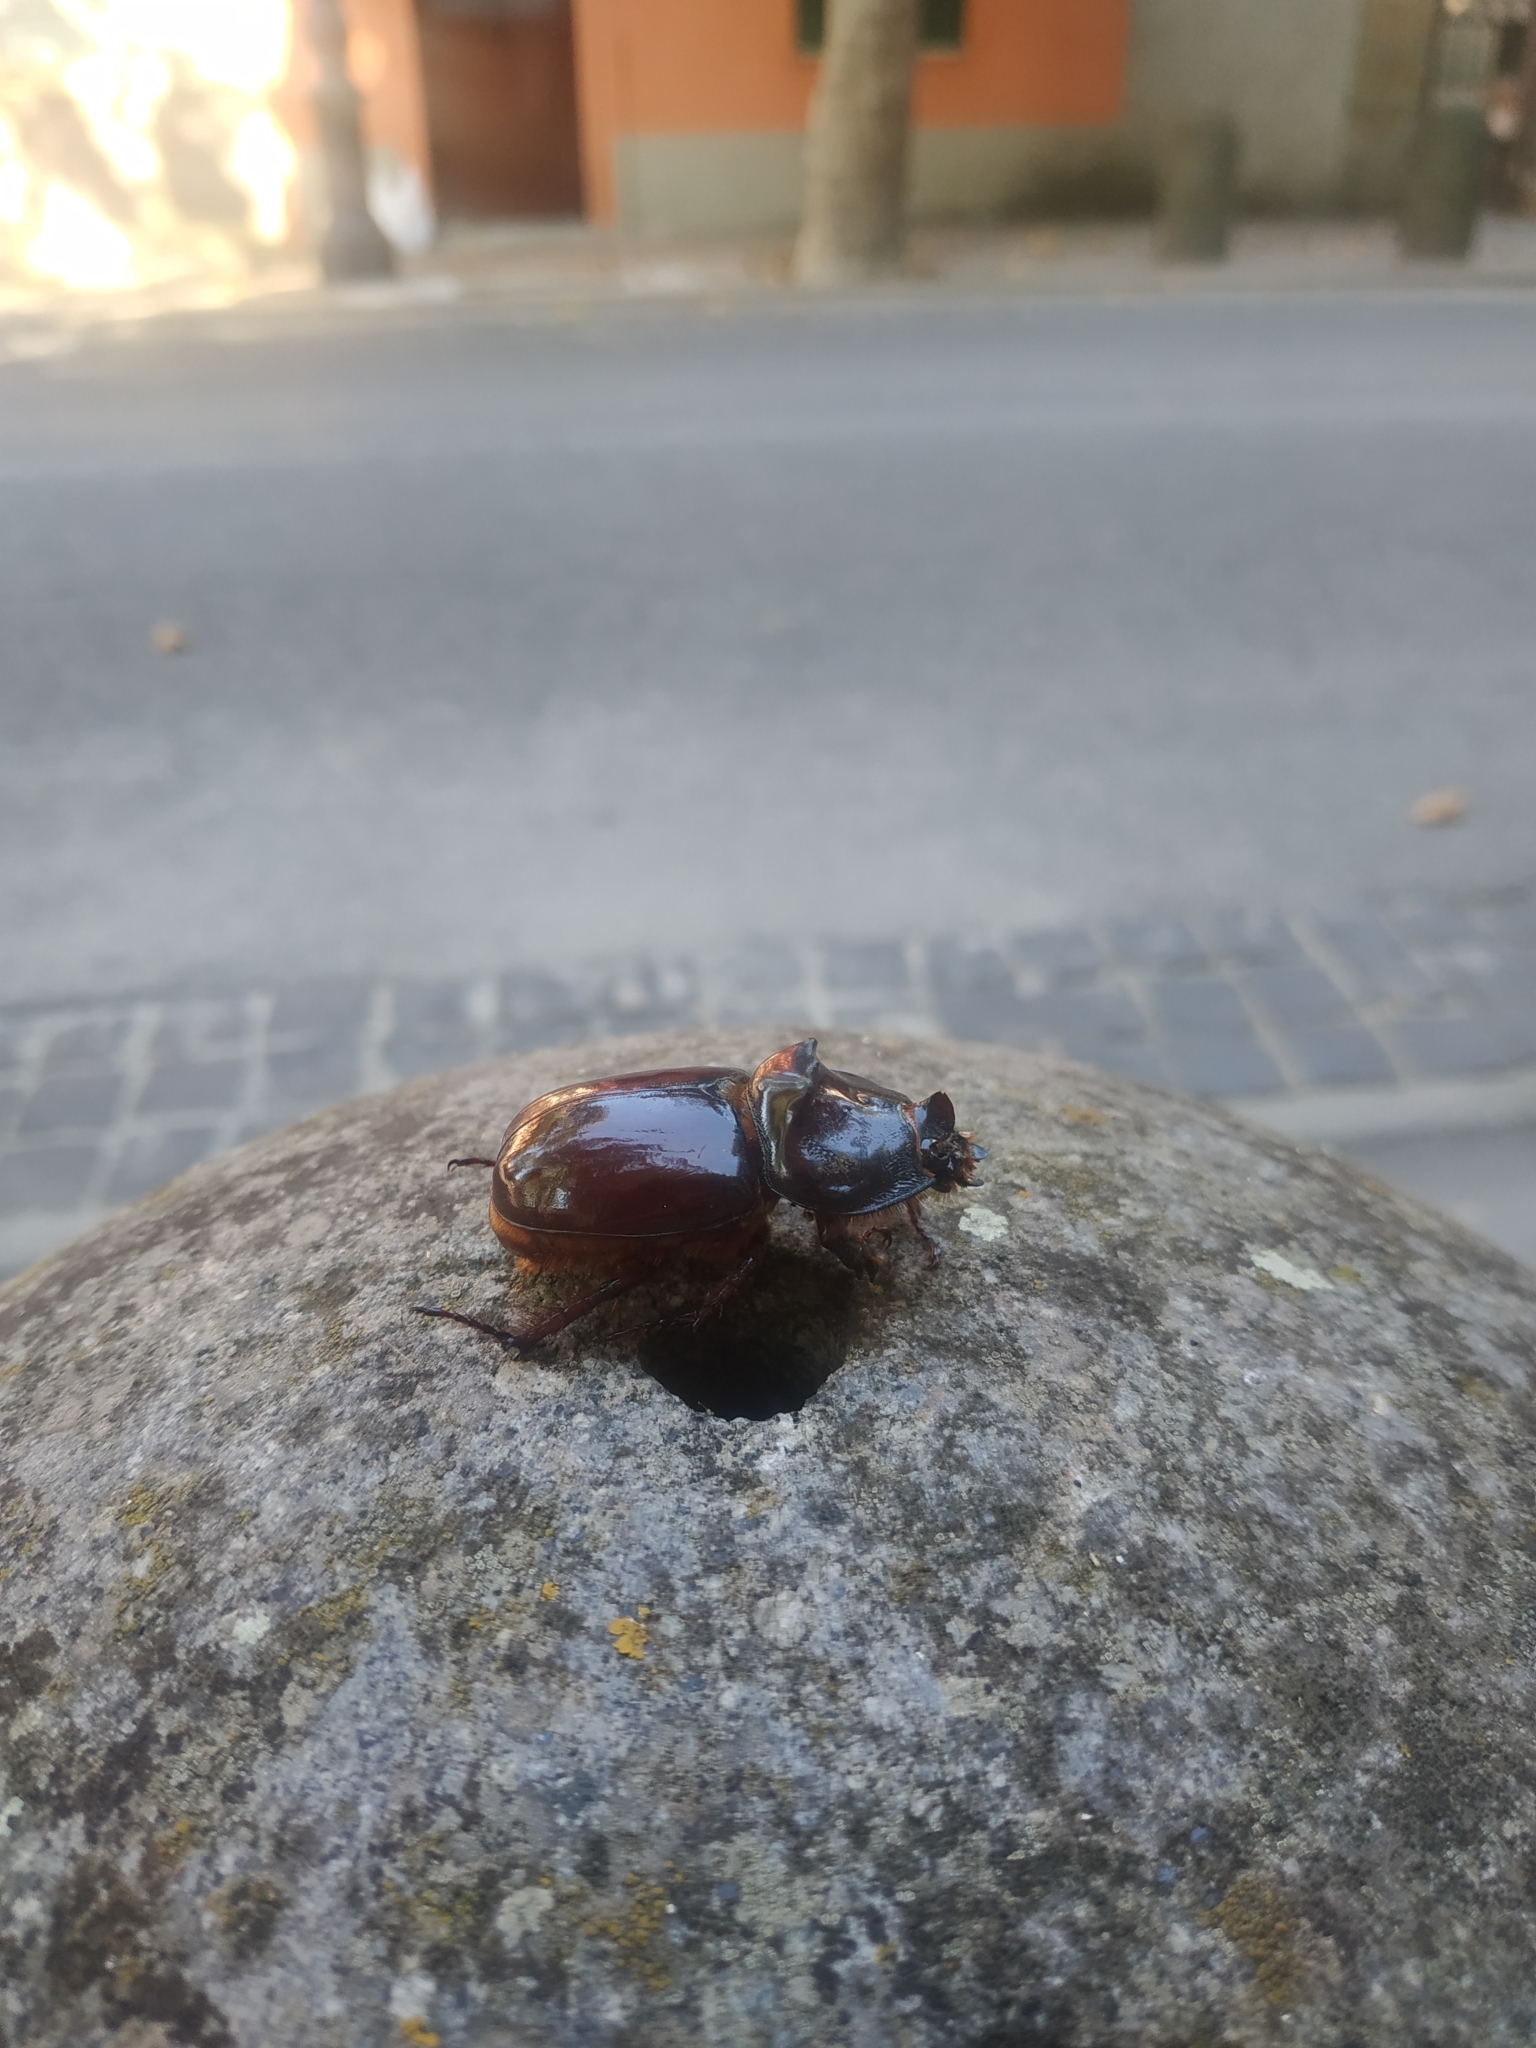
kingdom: Animalia
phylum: Arthropoda
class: Insecta
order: Coleoptera
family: Scarabaeidae
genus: Oryctes
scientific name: Oryctes nasicornis
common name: European rhinoceros beetle
